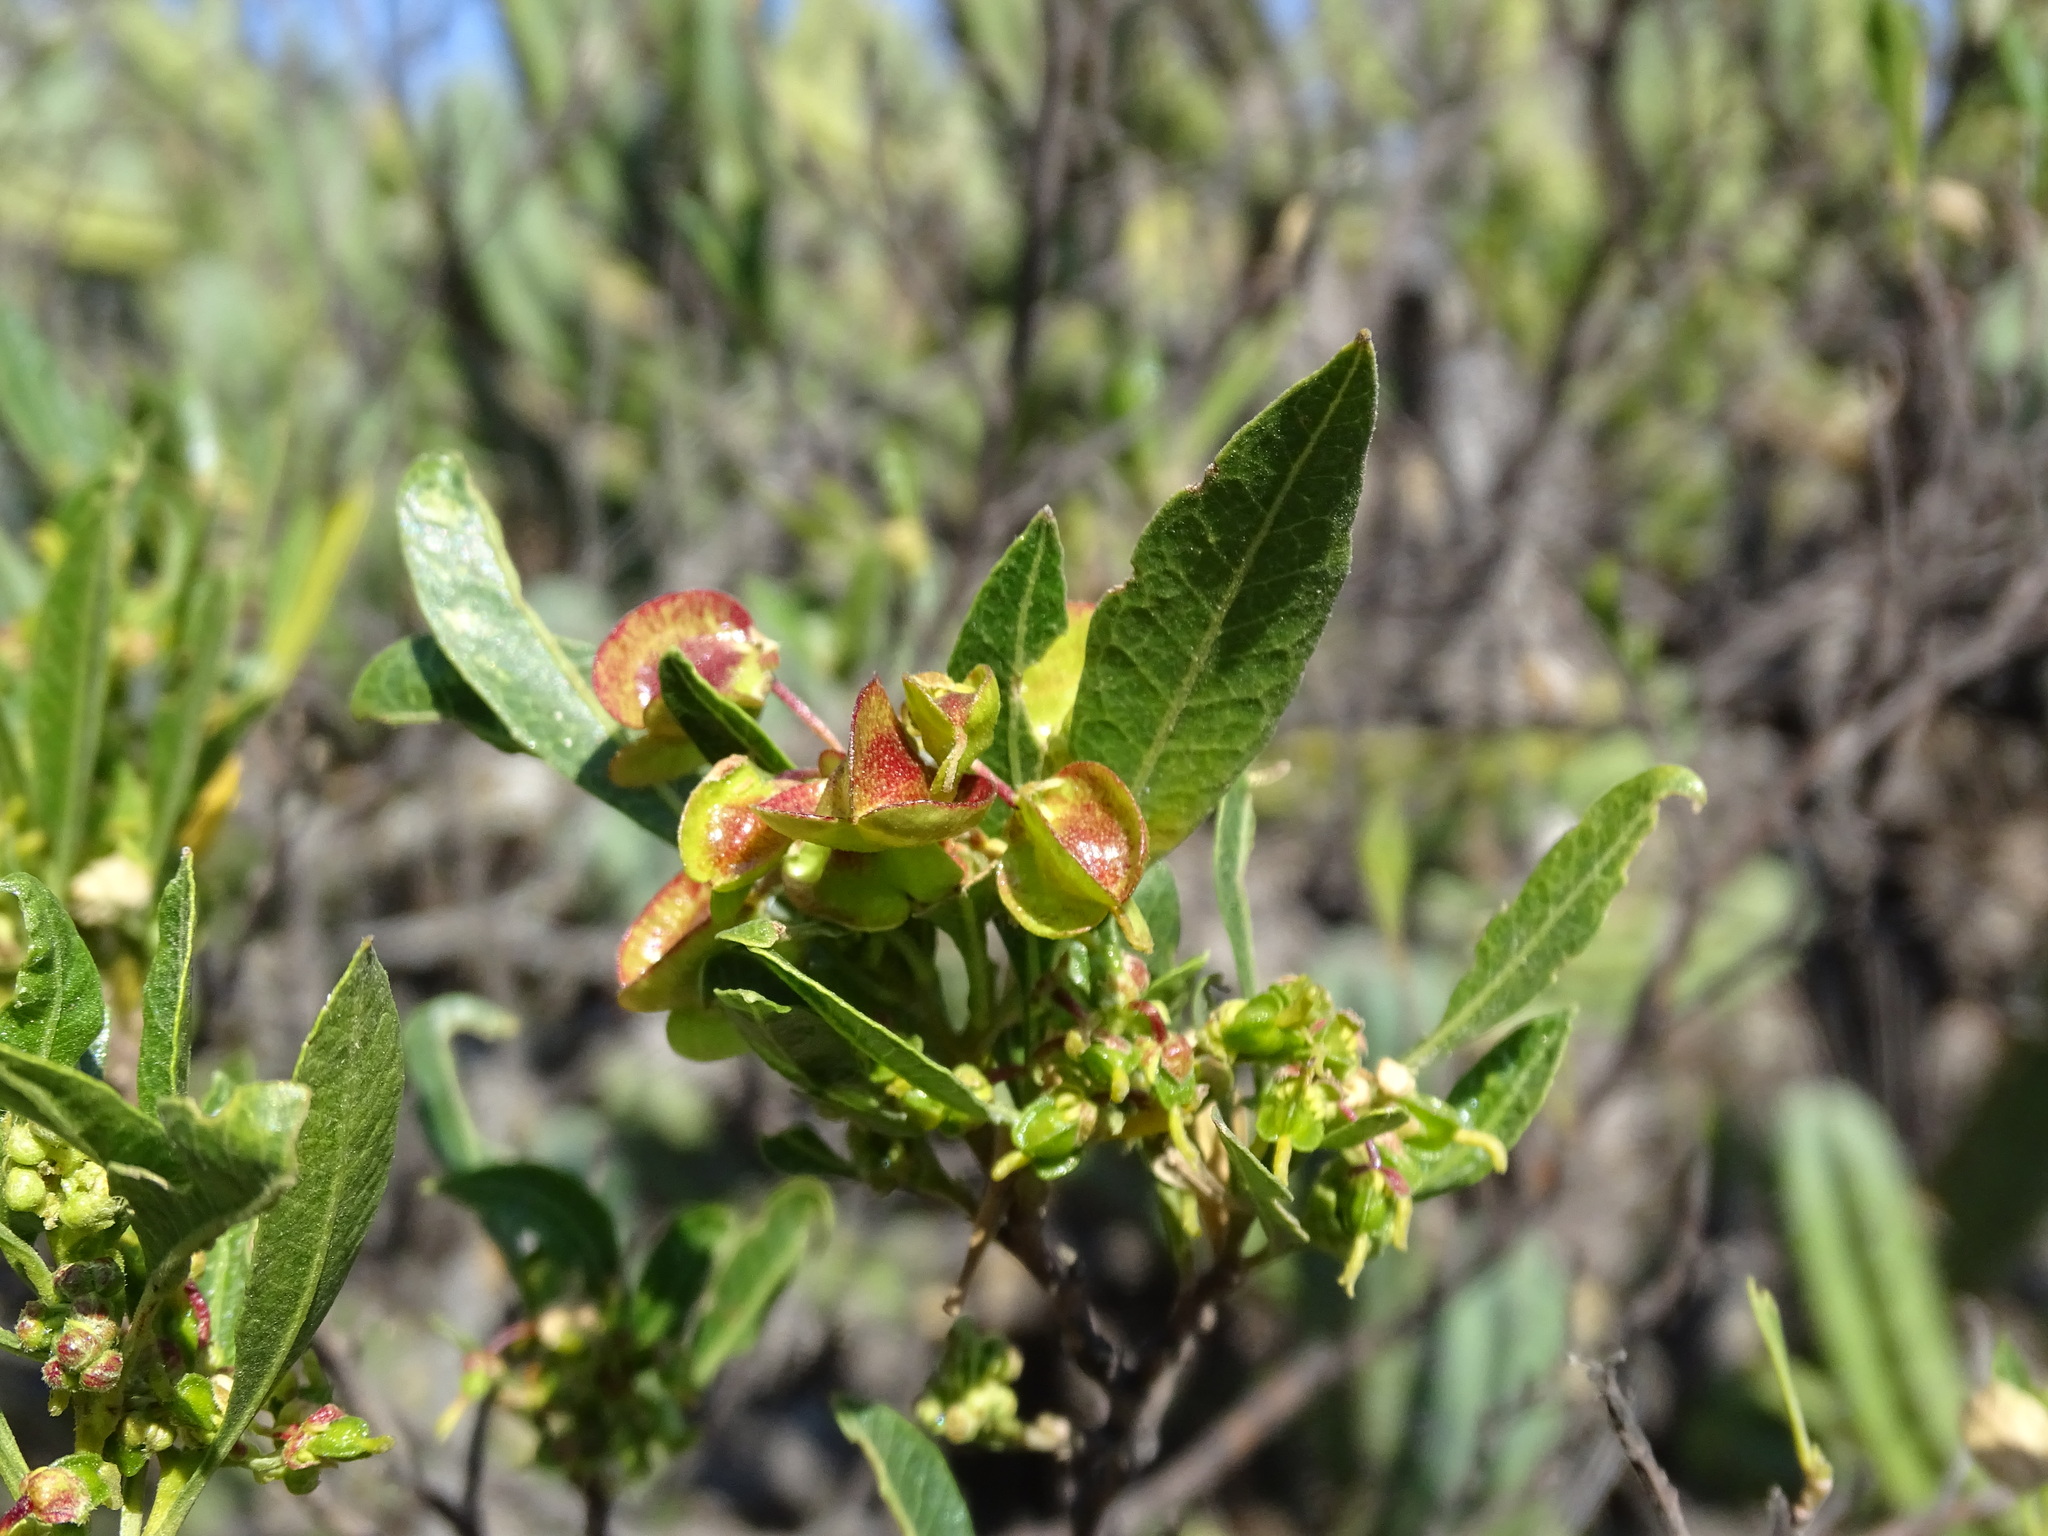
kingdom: Plantae
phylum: Tracheophyta
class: Magnoliopsida
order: Sapindales
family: Sapindaceae
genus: Dodonaea
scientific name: Dodonaea viscosa
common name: Hopbush
